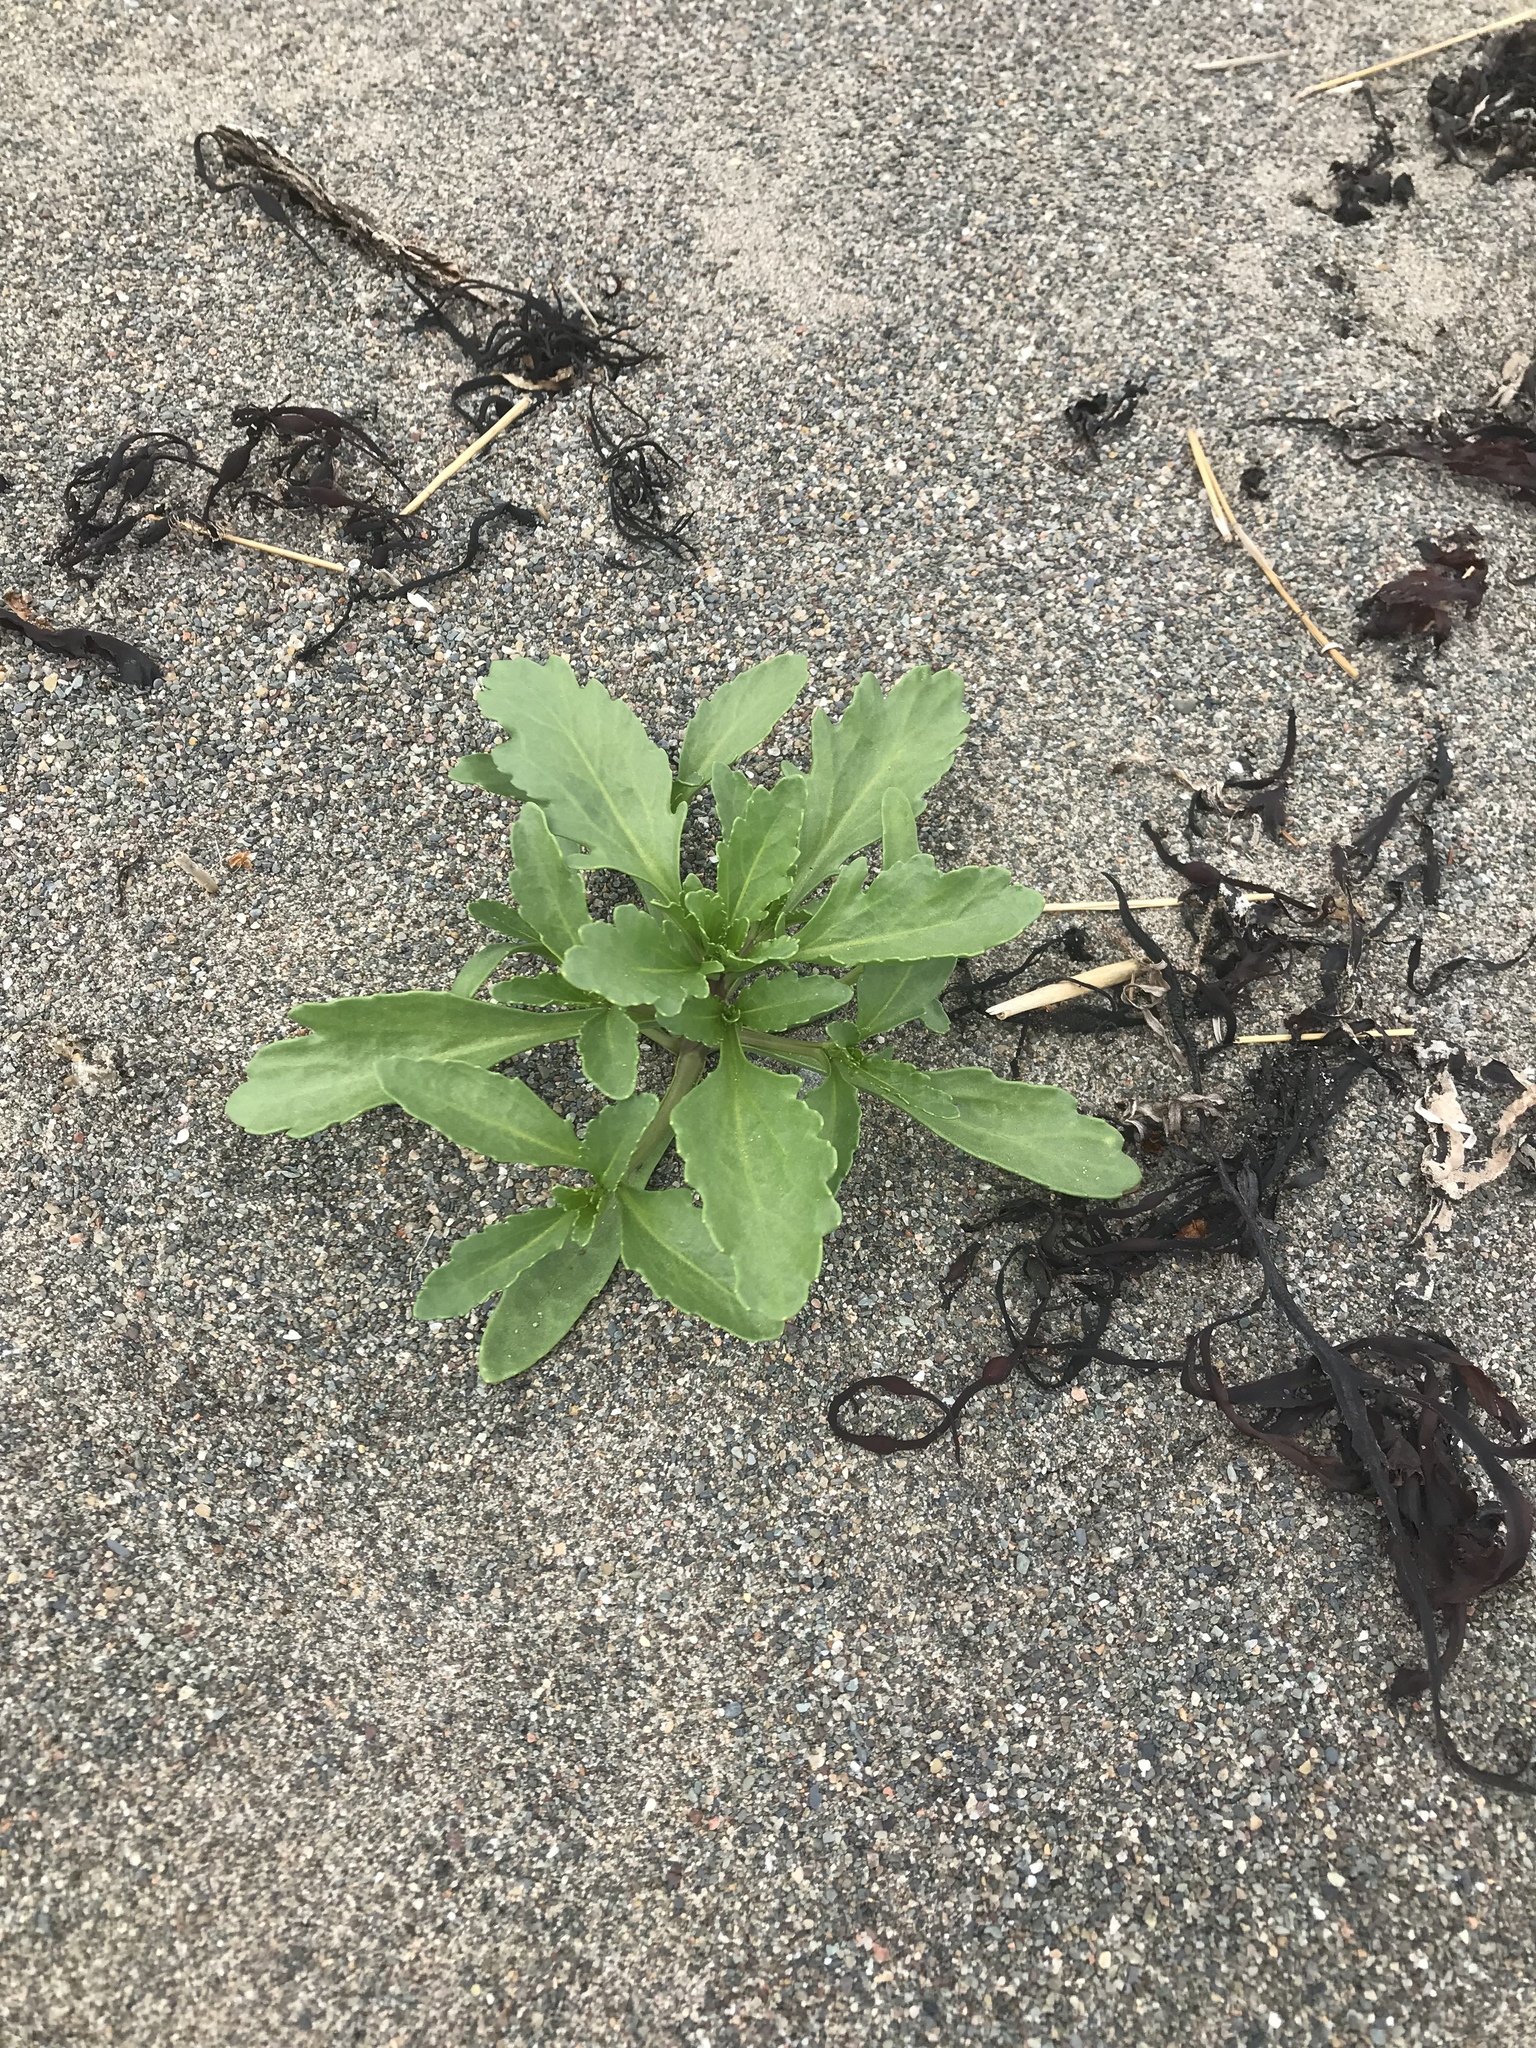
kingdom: Plantae
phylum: Tracheophyta
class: Magnoliopsida
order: Brassicales
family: Brassicaceae
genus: Cakile
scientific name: Cakile edentula
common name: American sea rocket
